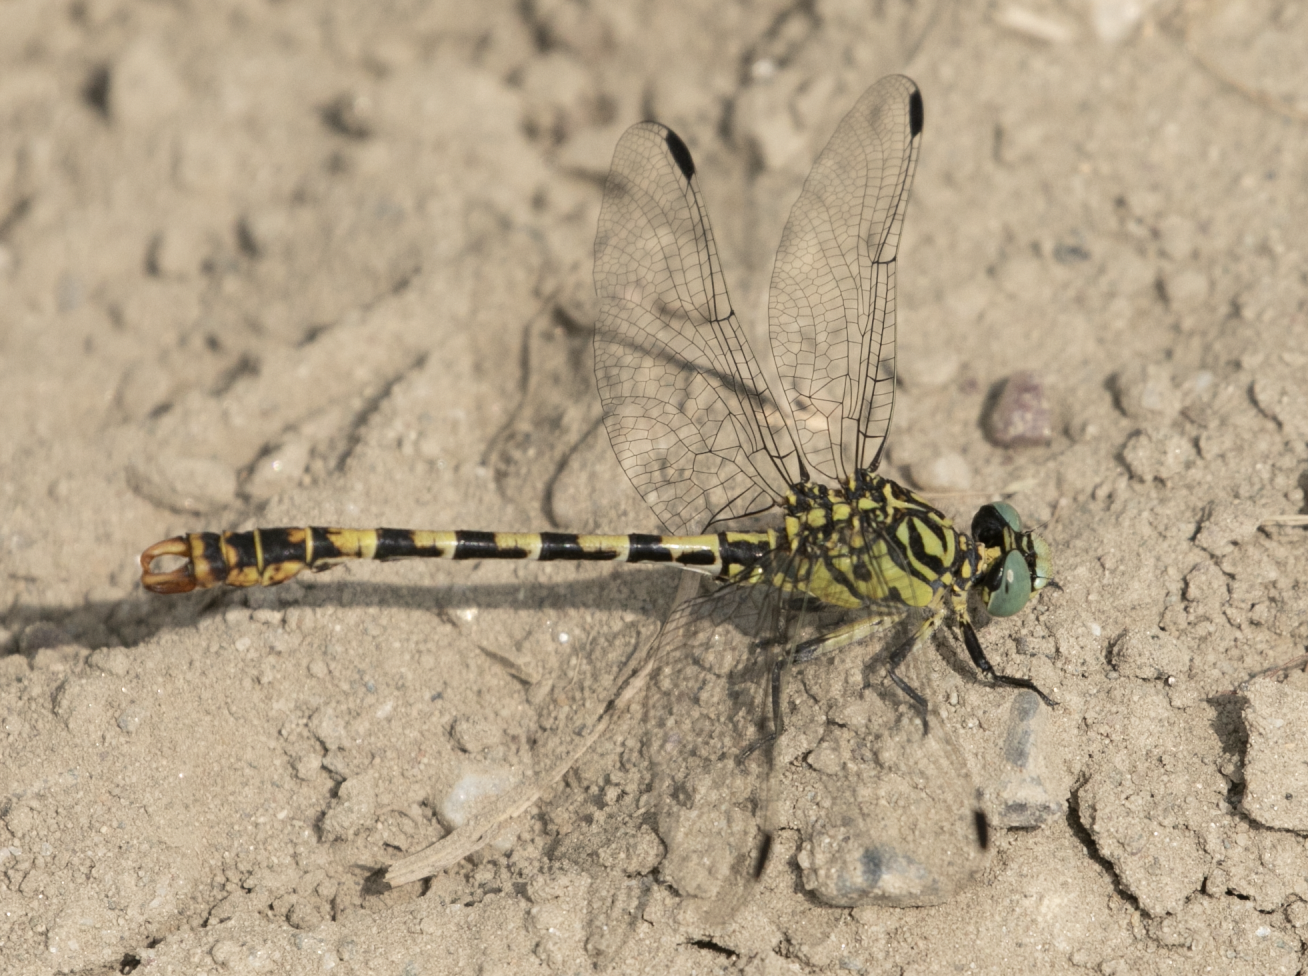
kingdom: Animalia
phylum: Arthropoda
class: Insecta
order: Odonata
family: Gomphidae
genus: Onychogomphus
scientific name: Onychogomphus forcipatus
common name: Small pincertail
